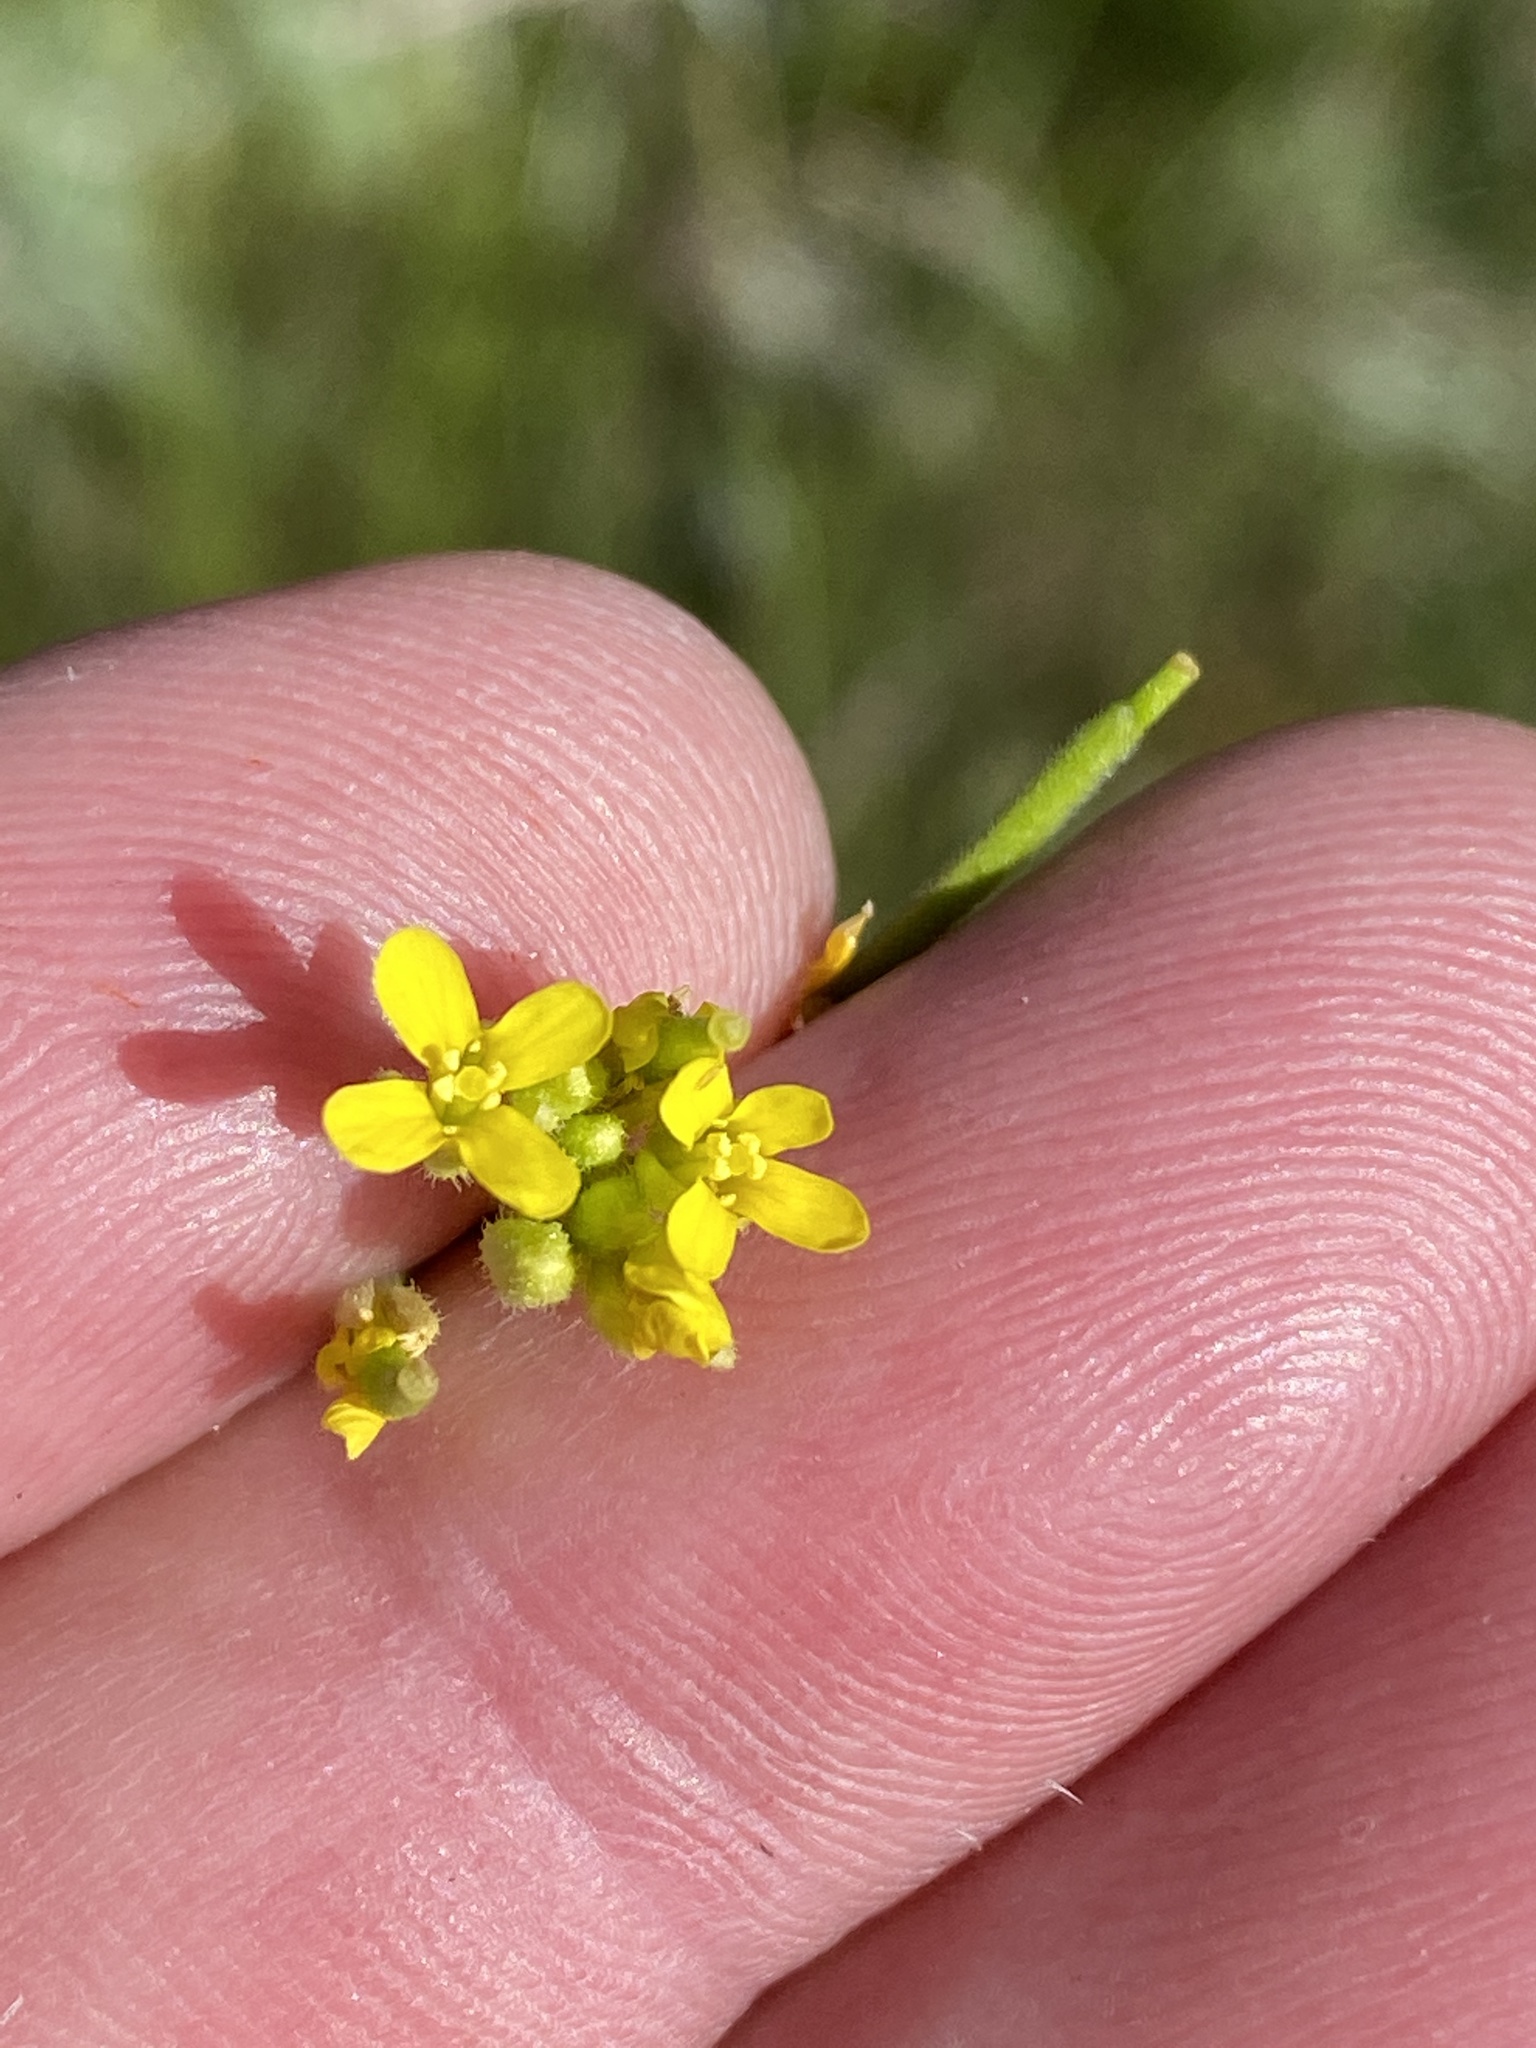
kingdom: Plantae
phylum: Tracheophyta
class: Magnoliopsida
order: Brassicales
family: Brassicaceae
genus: Erucastrum
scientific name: Erucastrum griquense
